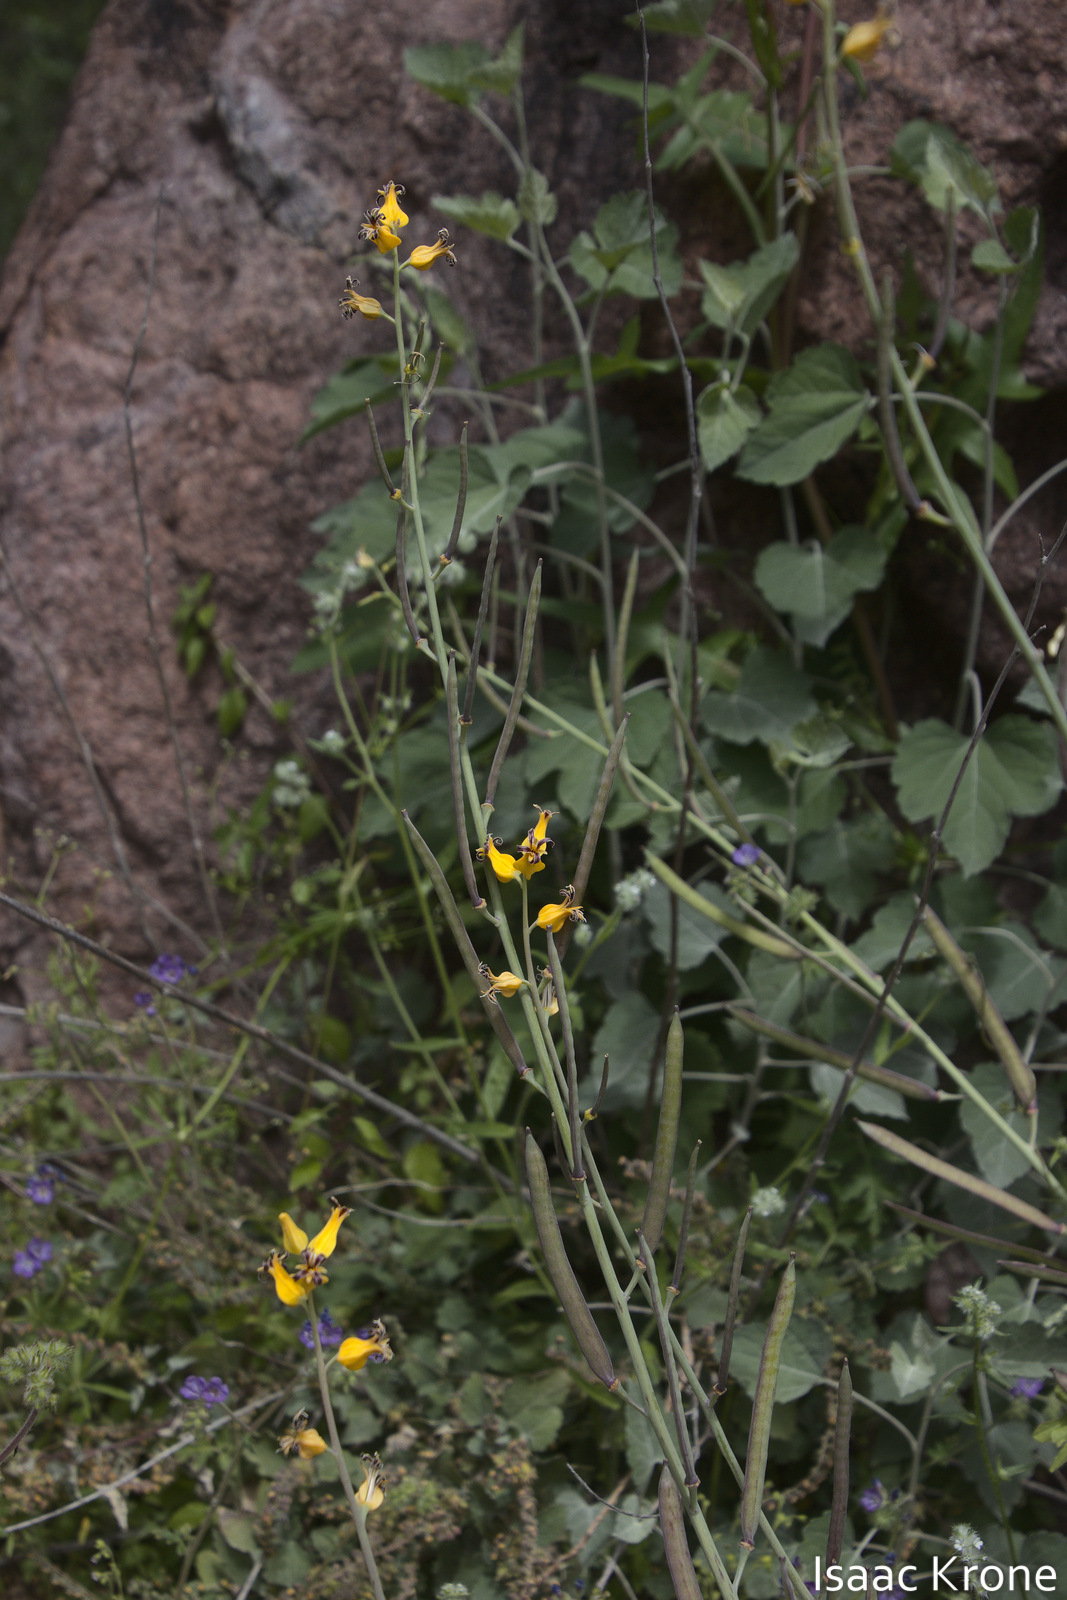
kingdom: Plantae
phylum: Tracheophyta
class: Magnoliopsida
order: Brassicales
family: Brassicaceae
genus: Streptanthus
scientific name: Streptanthus carinatus
